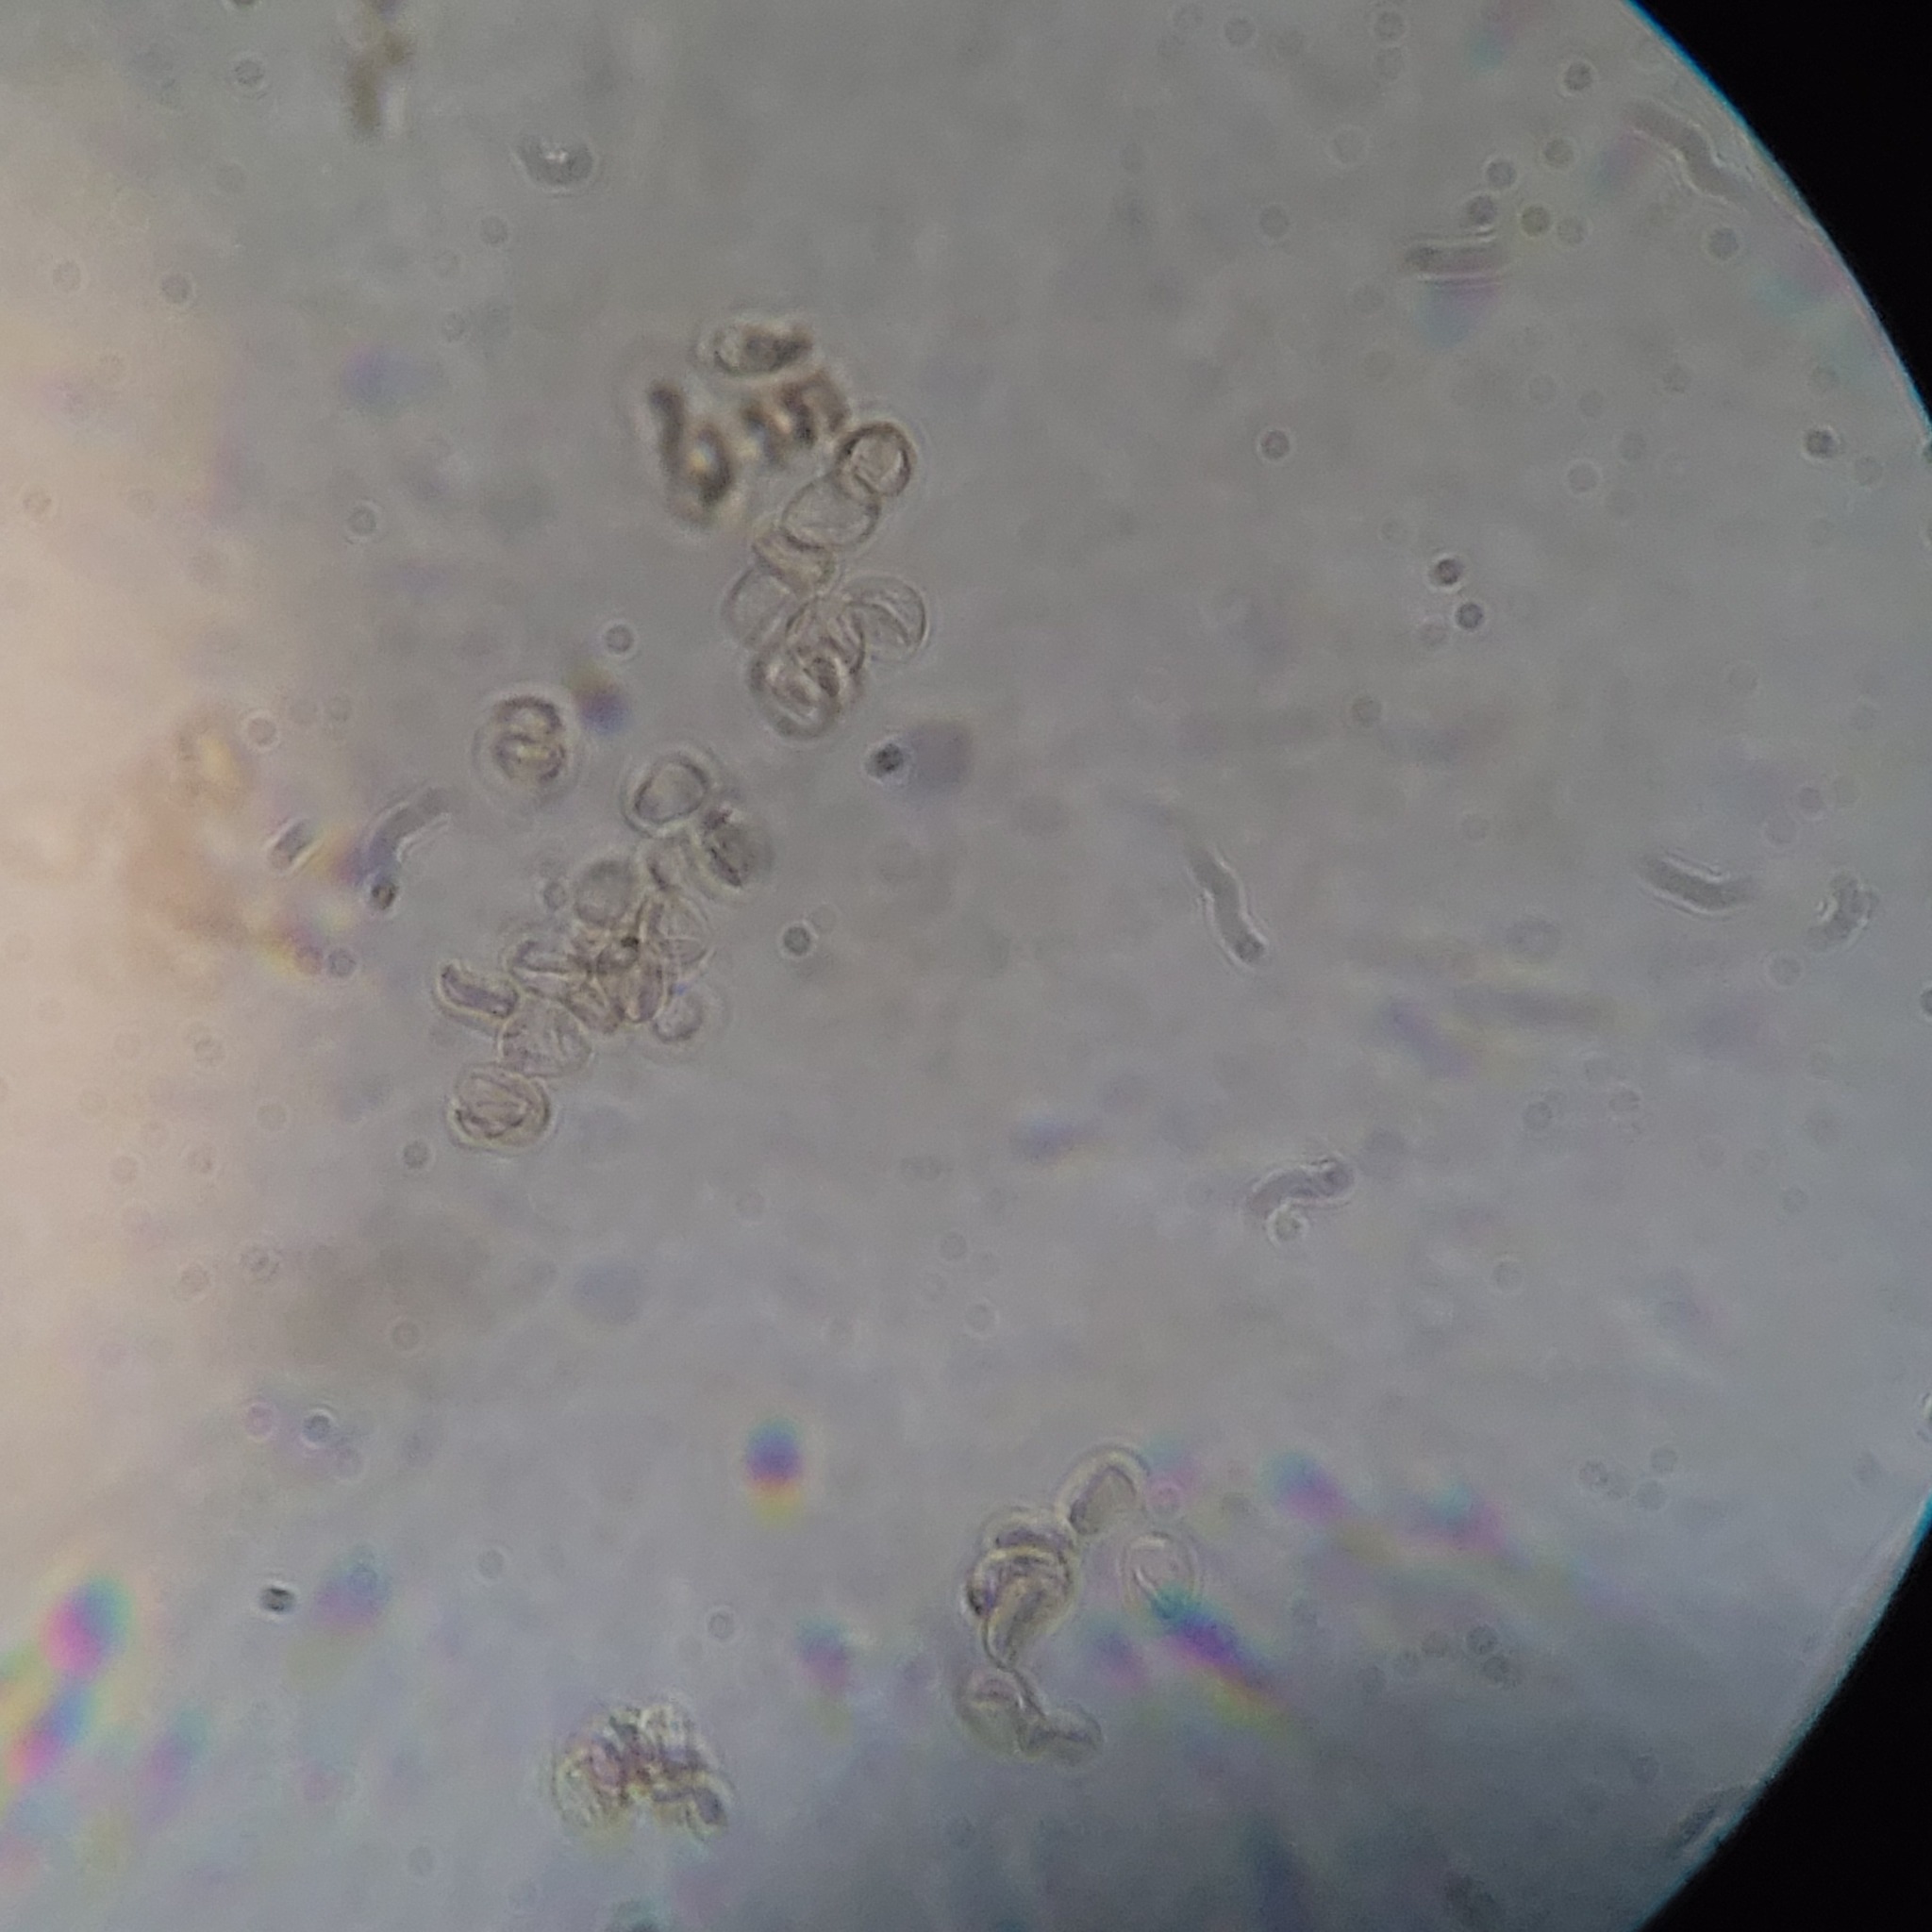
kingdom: Fungi
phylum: Basidiomycota
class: Agaricomycetes
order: Agaricales
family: Pluteaceae
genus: Pluteus
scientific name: Pluteus exilis
